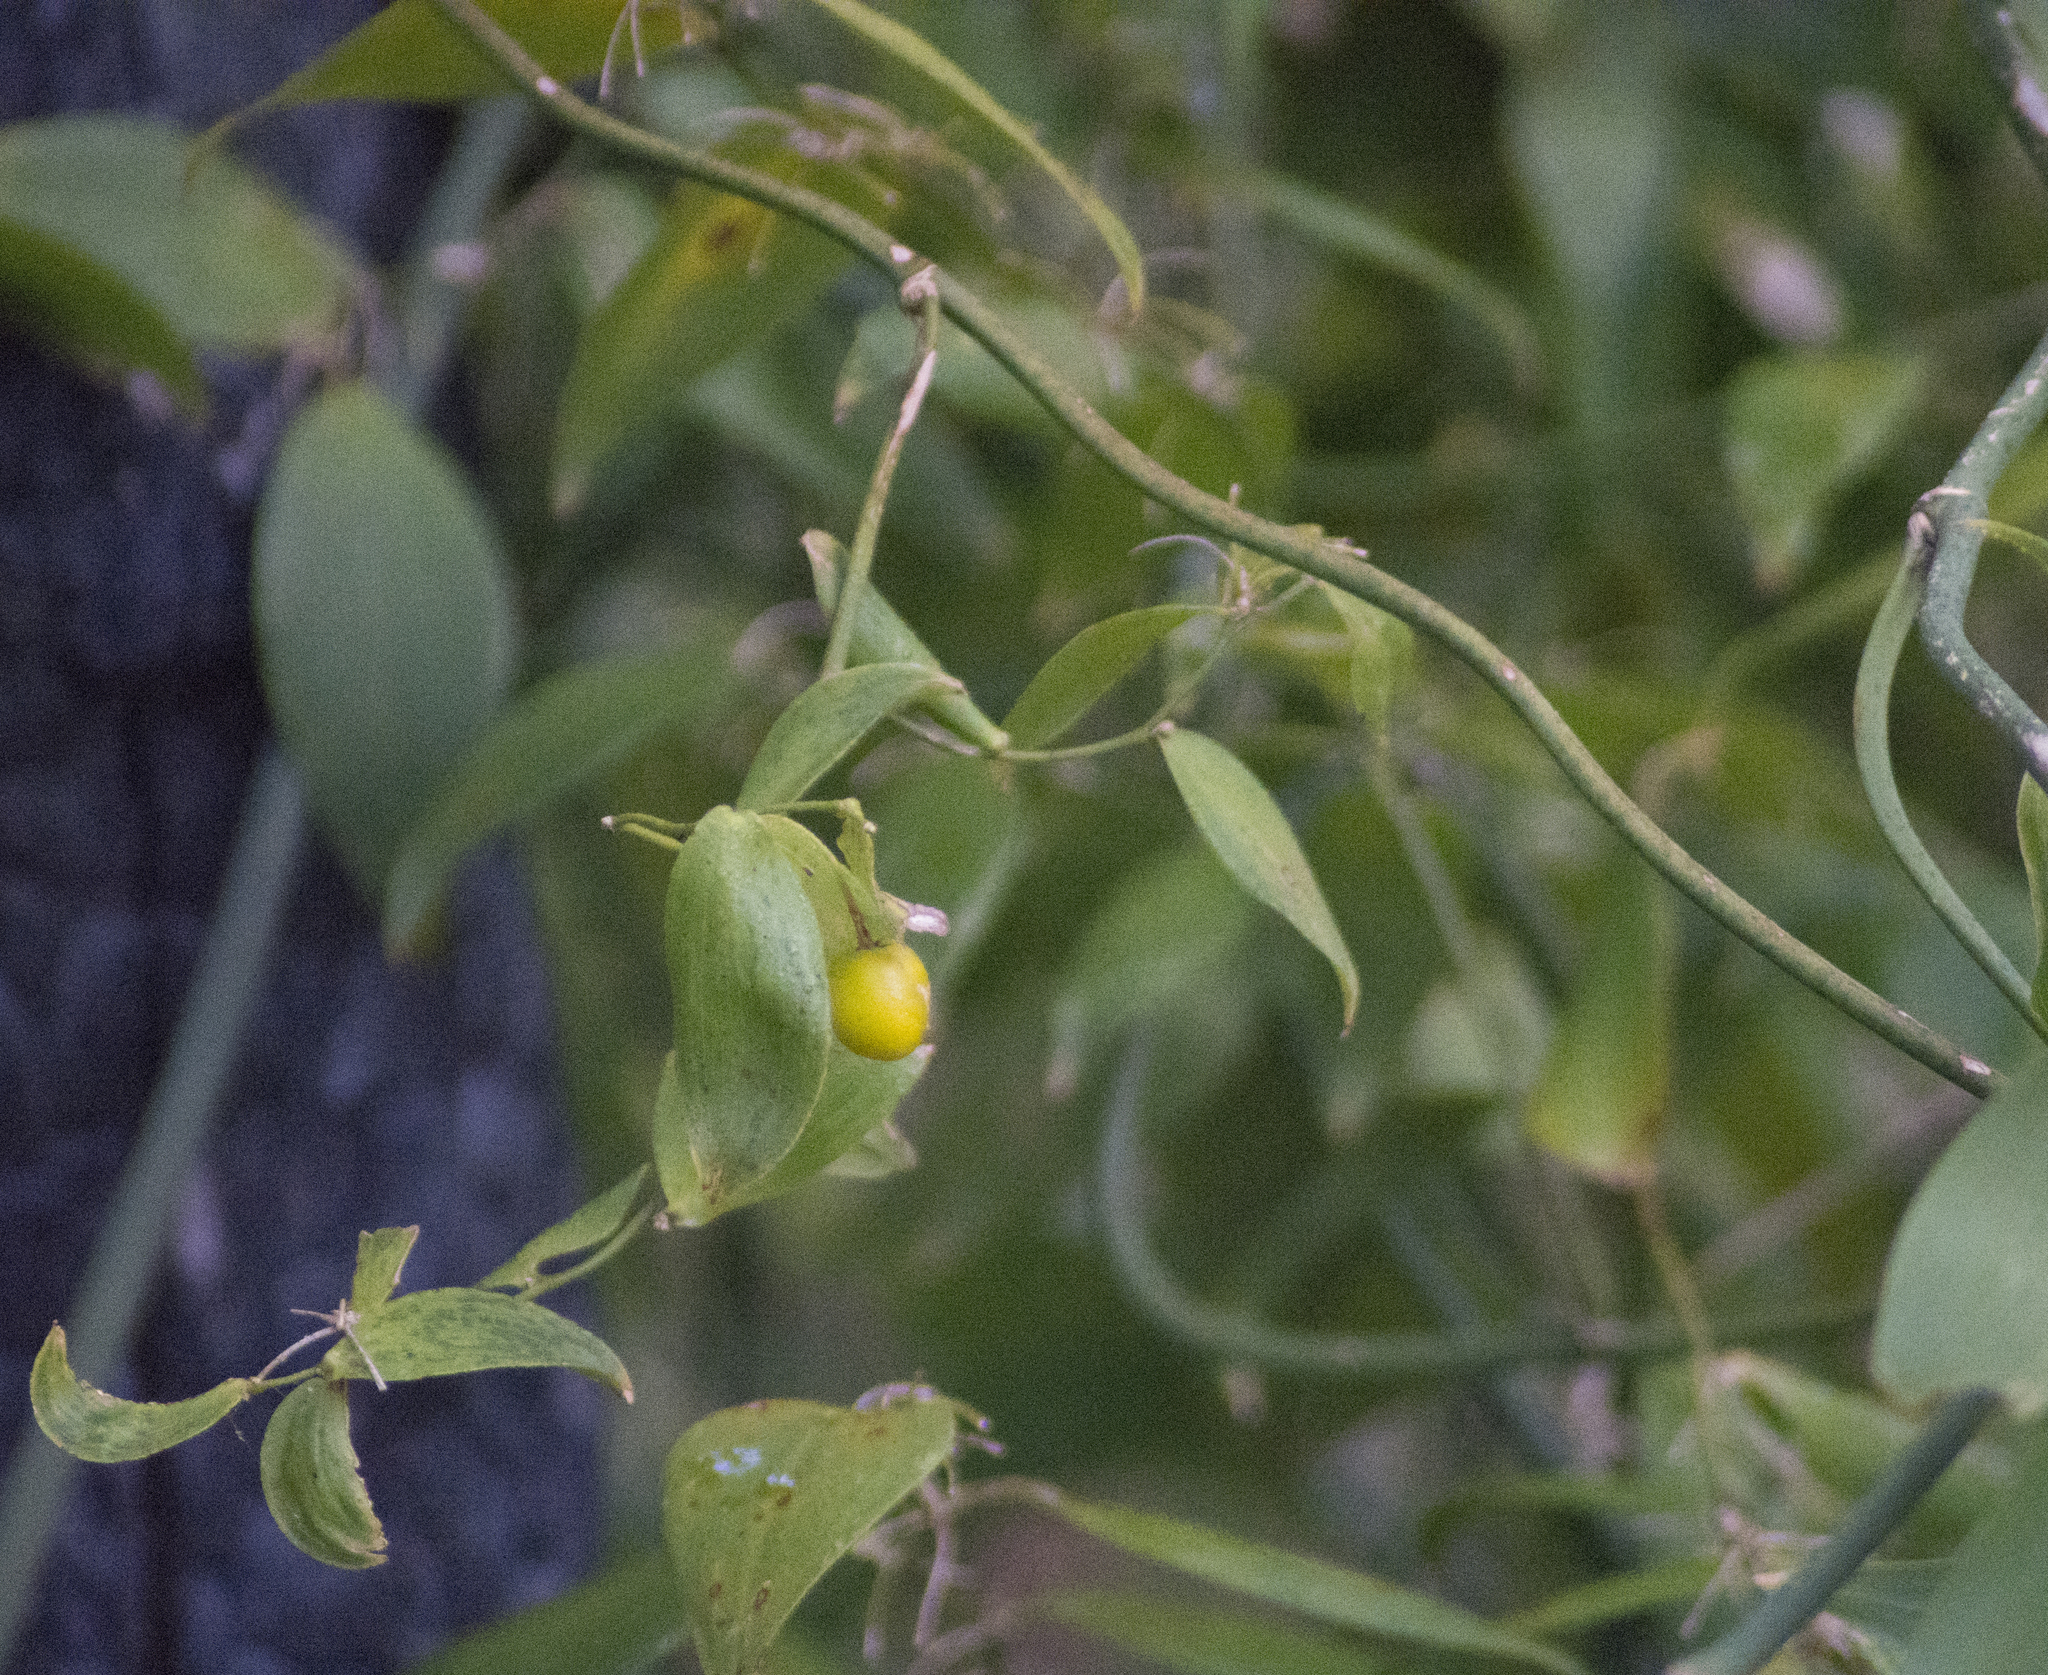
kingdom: Plantae
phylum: Tracheophyta
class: Liliopsida
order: Asparagales
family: Asparagaceae
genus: Eustrephus
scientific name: Eustrephus latifolius
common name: Orangevine
